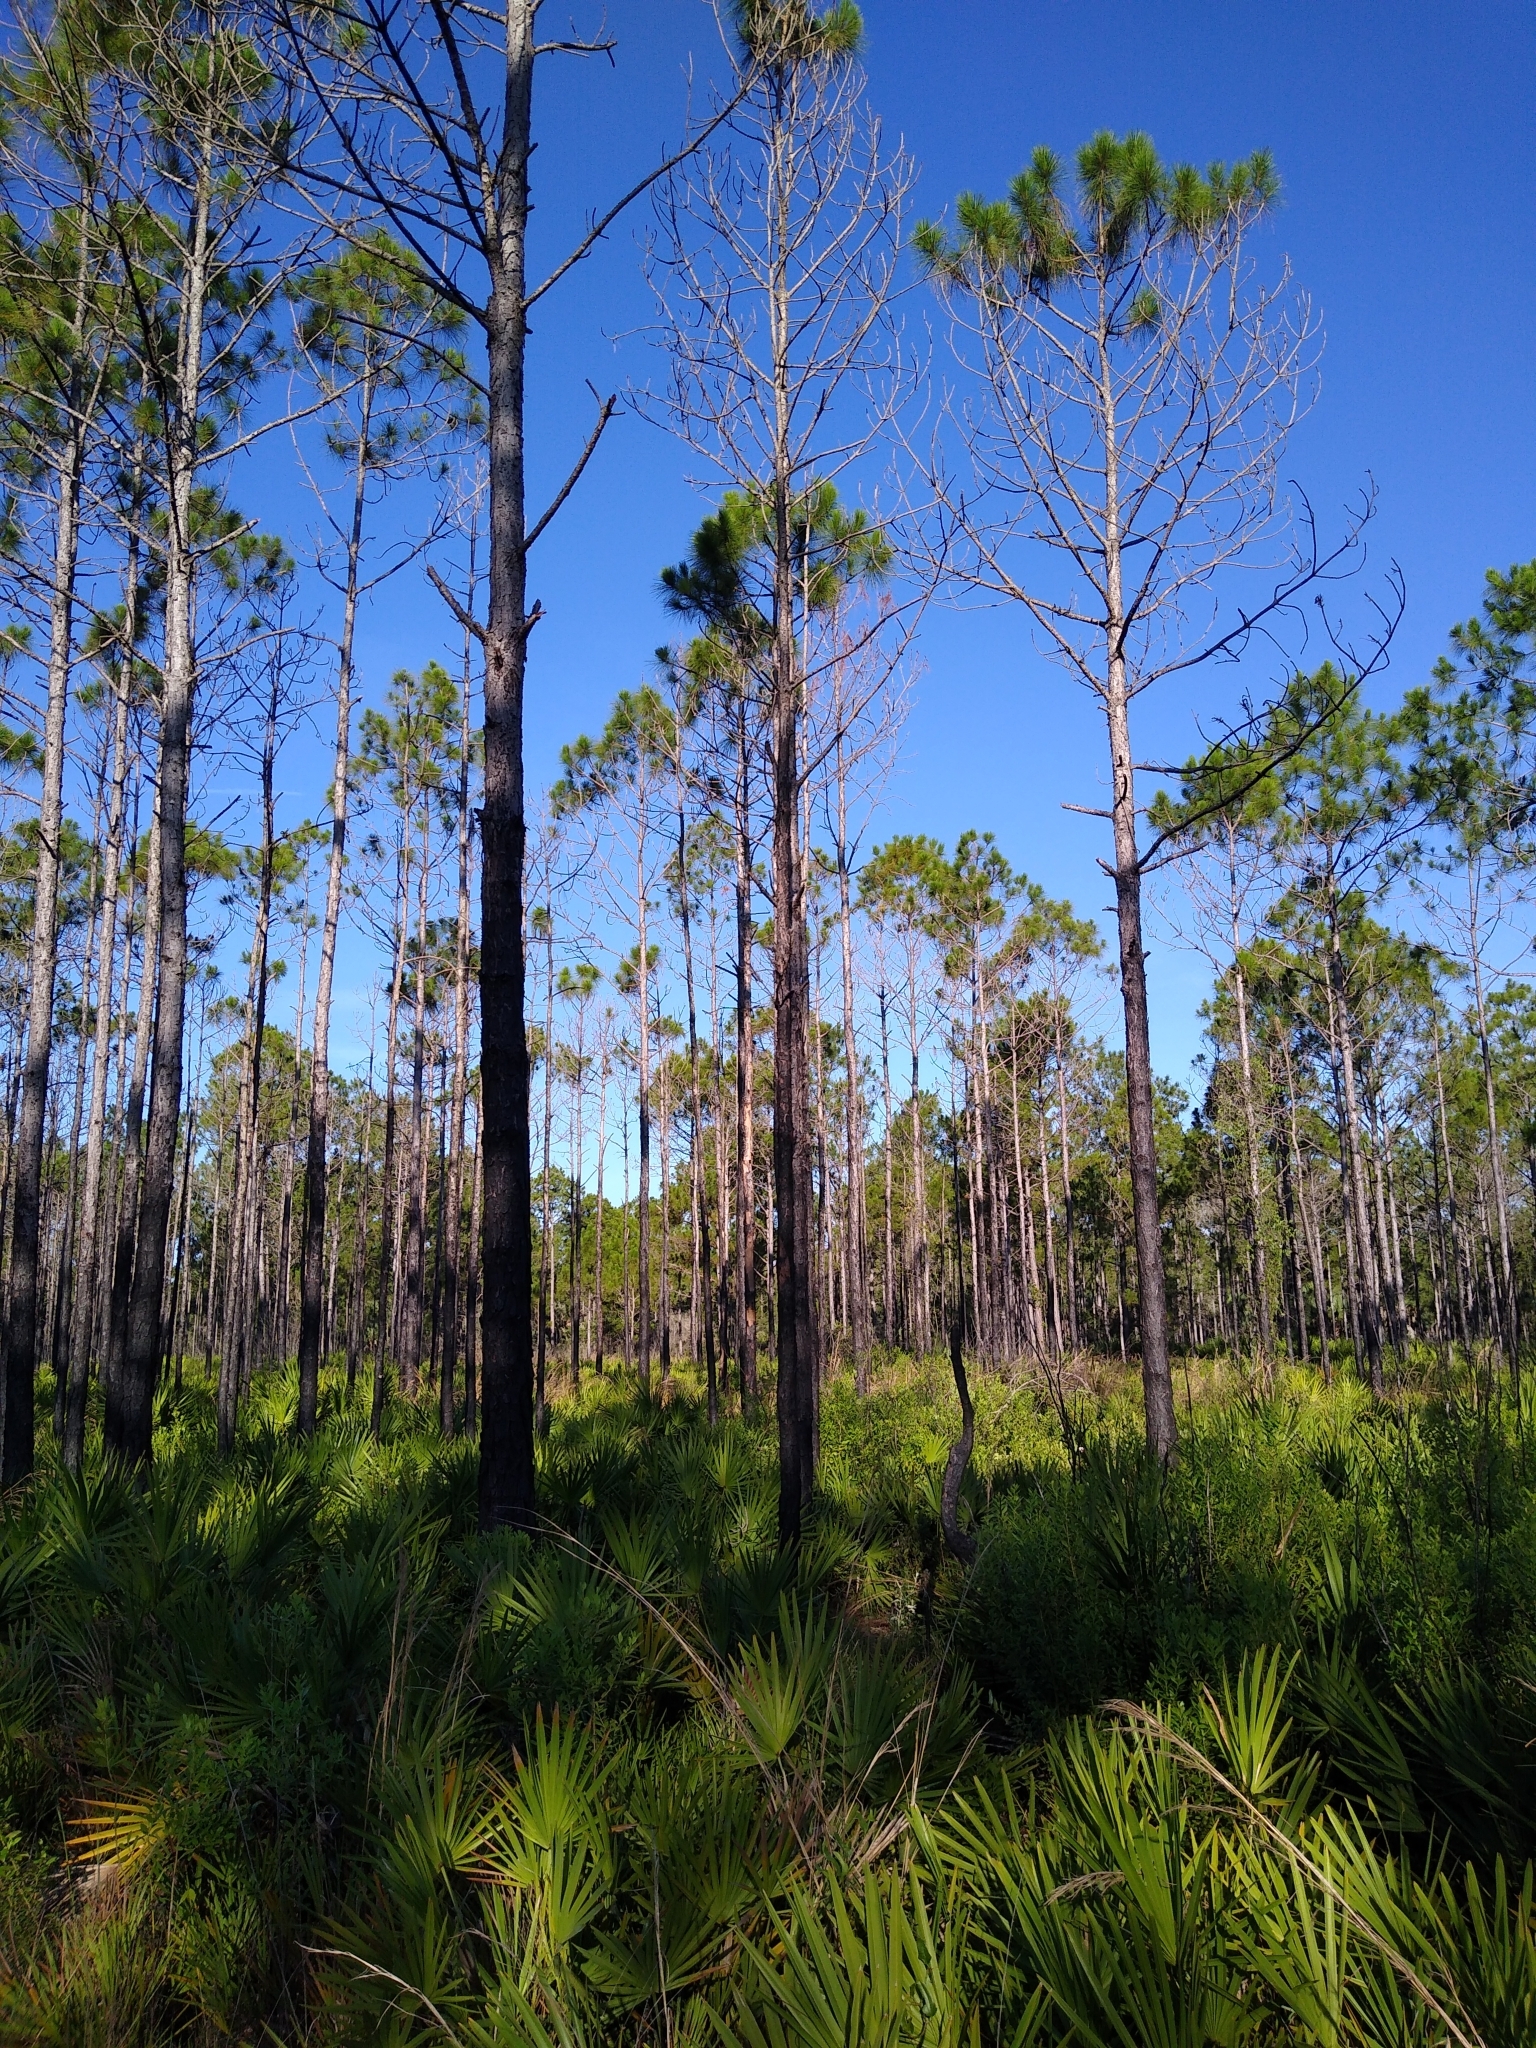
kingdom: Plantae
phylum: Tracheophyta
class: Pinopsida
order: Pinales
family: Pinaceae
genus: Pinus
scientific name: Pinus elliottii
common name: Slash pine
